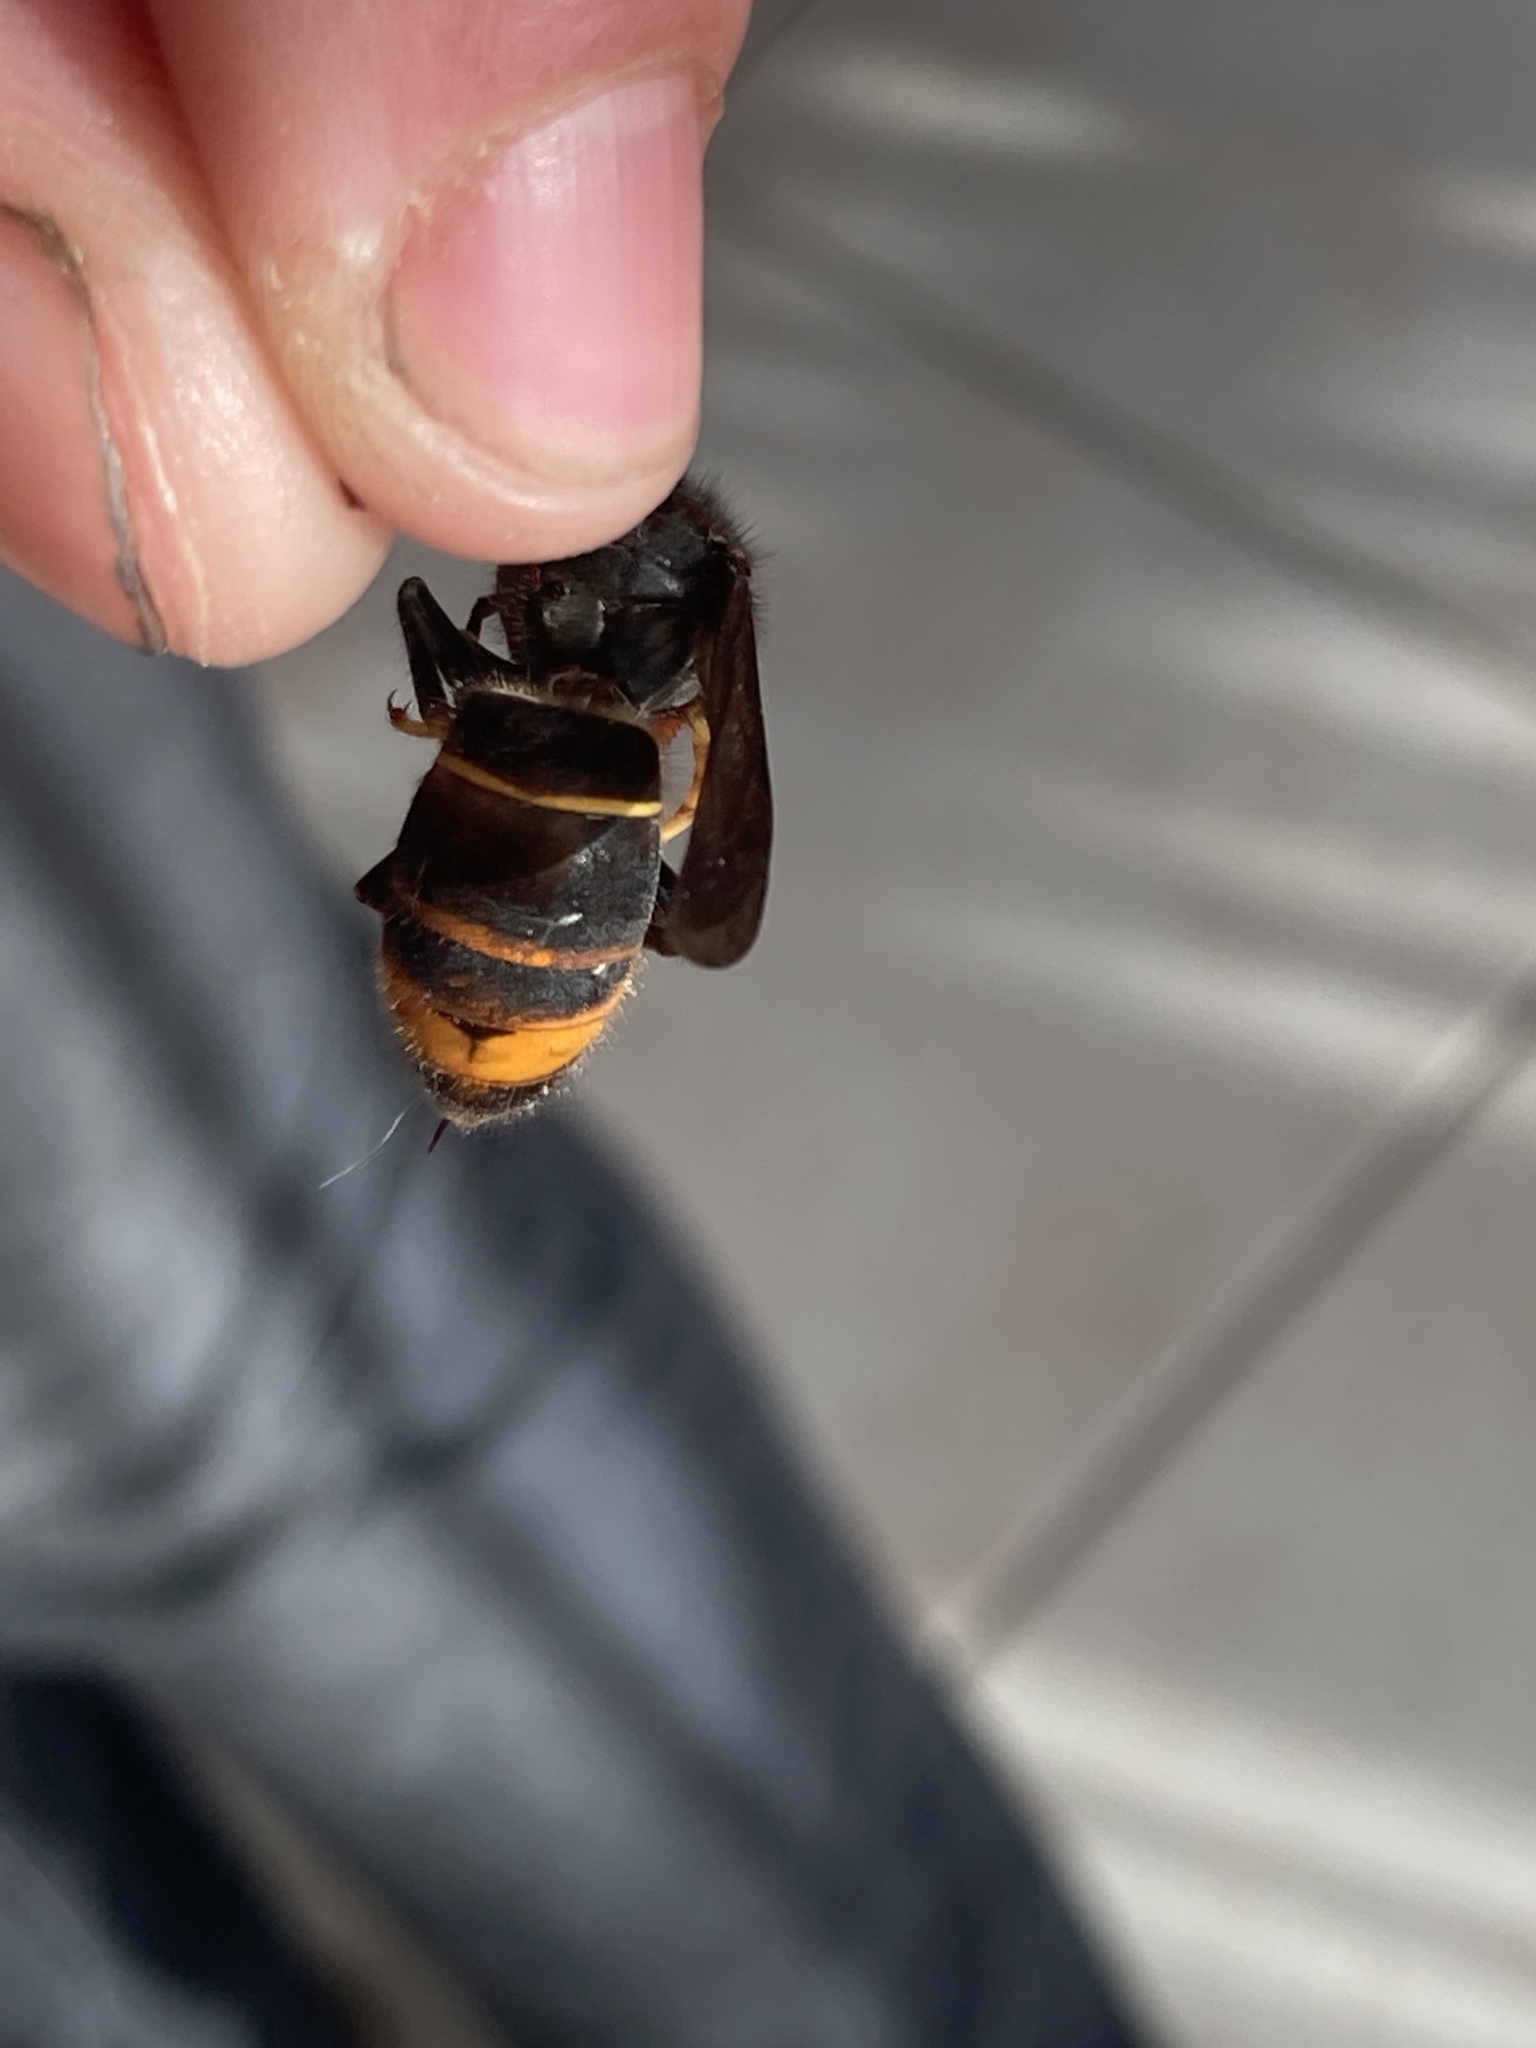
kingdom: Animalia
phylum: Arthropoda
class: Insecta
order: Hymenoptera
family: Vespidae
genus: Vespa
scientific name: Vespa velutina
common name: Asian hornet
